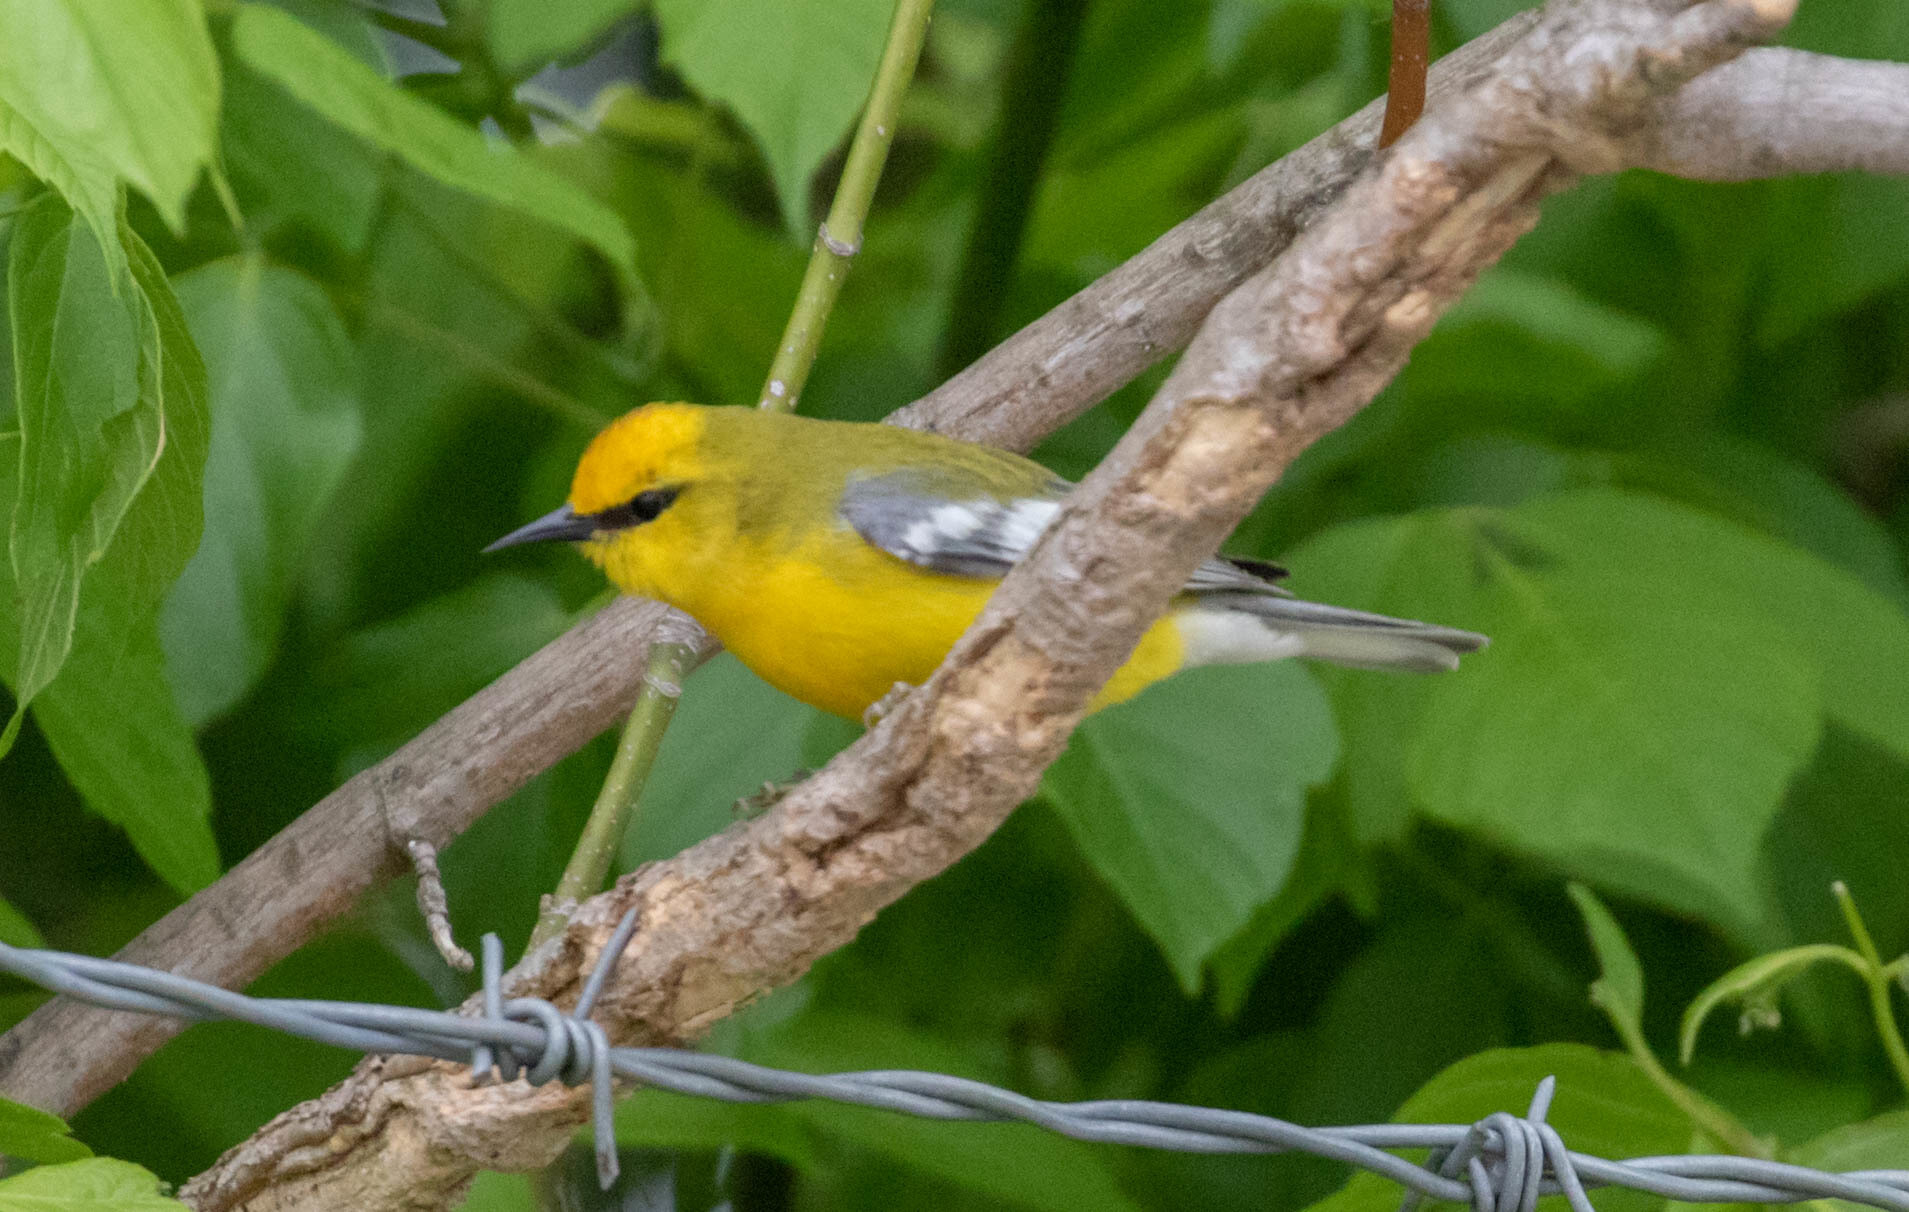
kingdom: Animalia
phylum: Chordata
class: Aves
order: Passeriformes
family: Parulidae
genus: Vermivora
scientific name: Vermivora cyanoptera
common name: Blue-winged warbler
